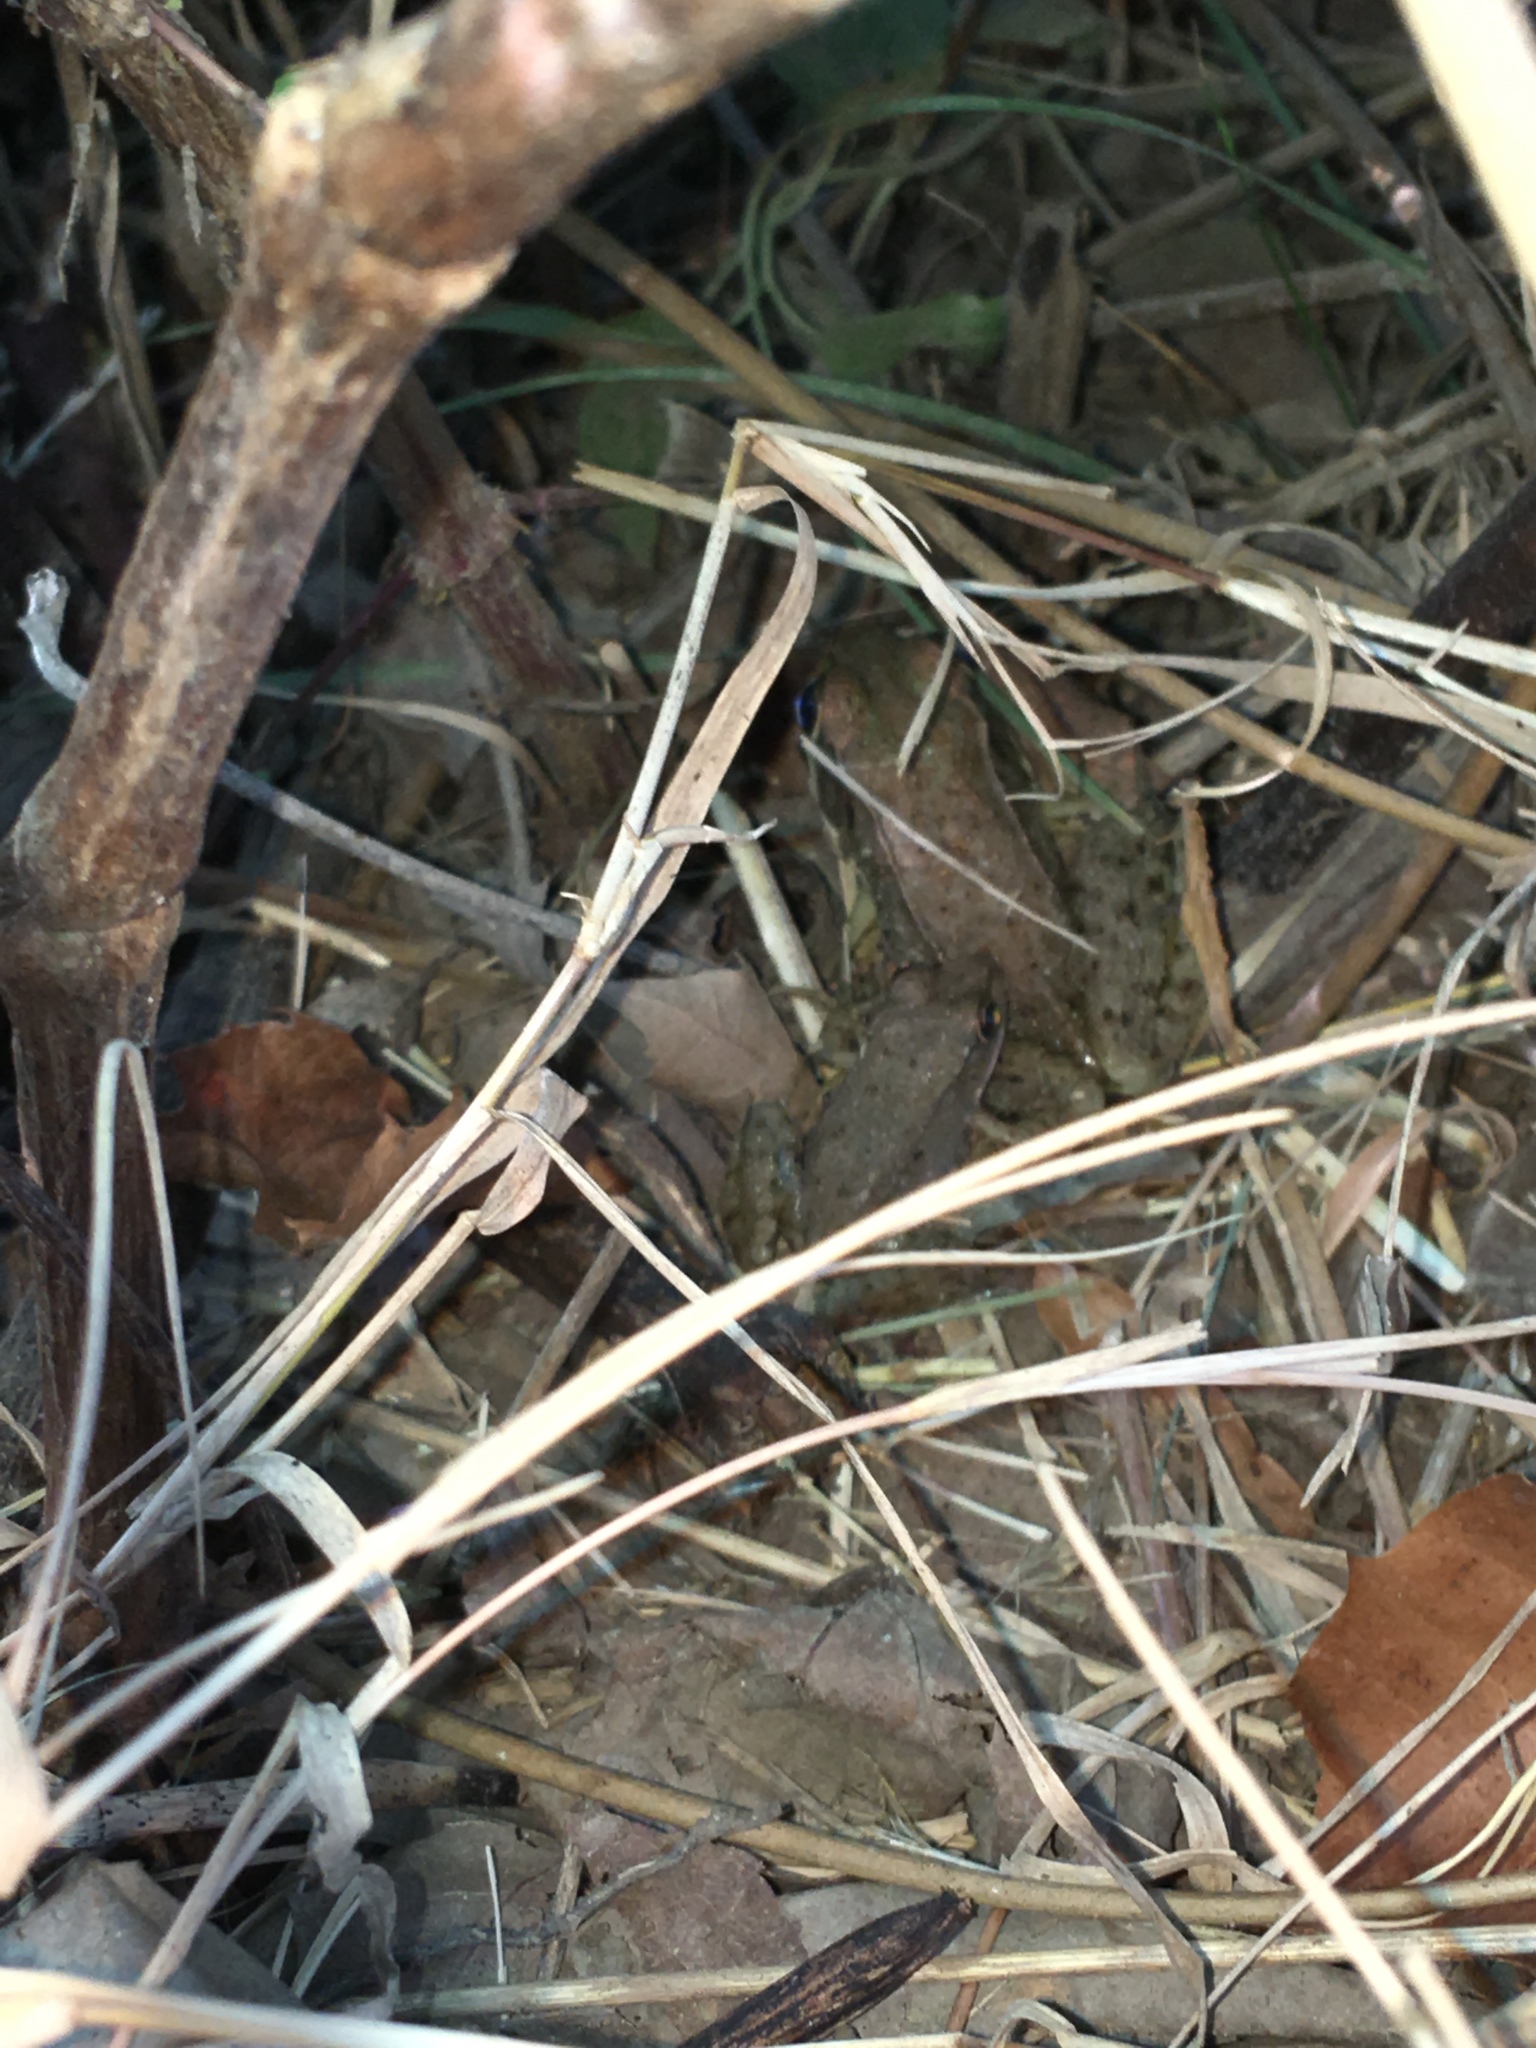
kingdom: Animalia
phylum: Chordata
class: Amphibia
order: Anura
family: Ranidae
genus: Lithobates
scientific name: Lithobates clamitans
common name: Green frog
